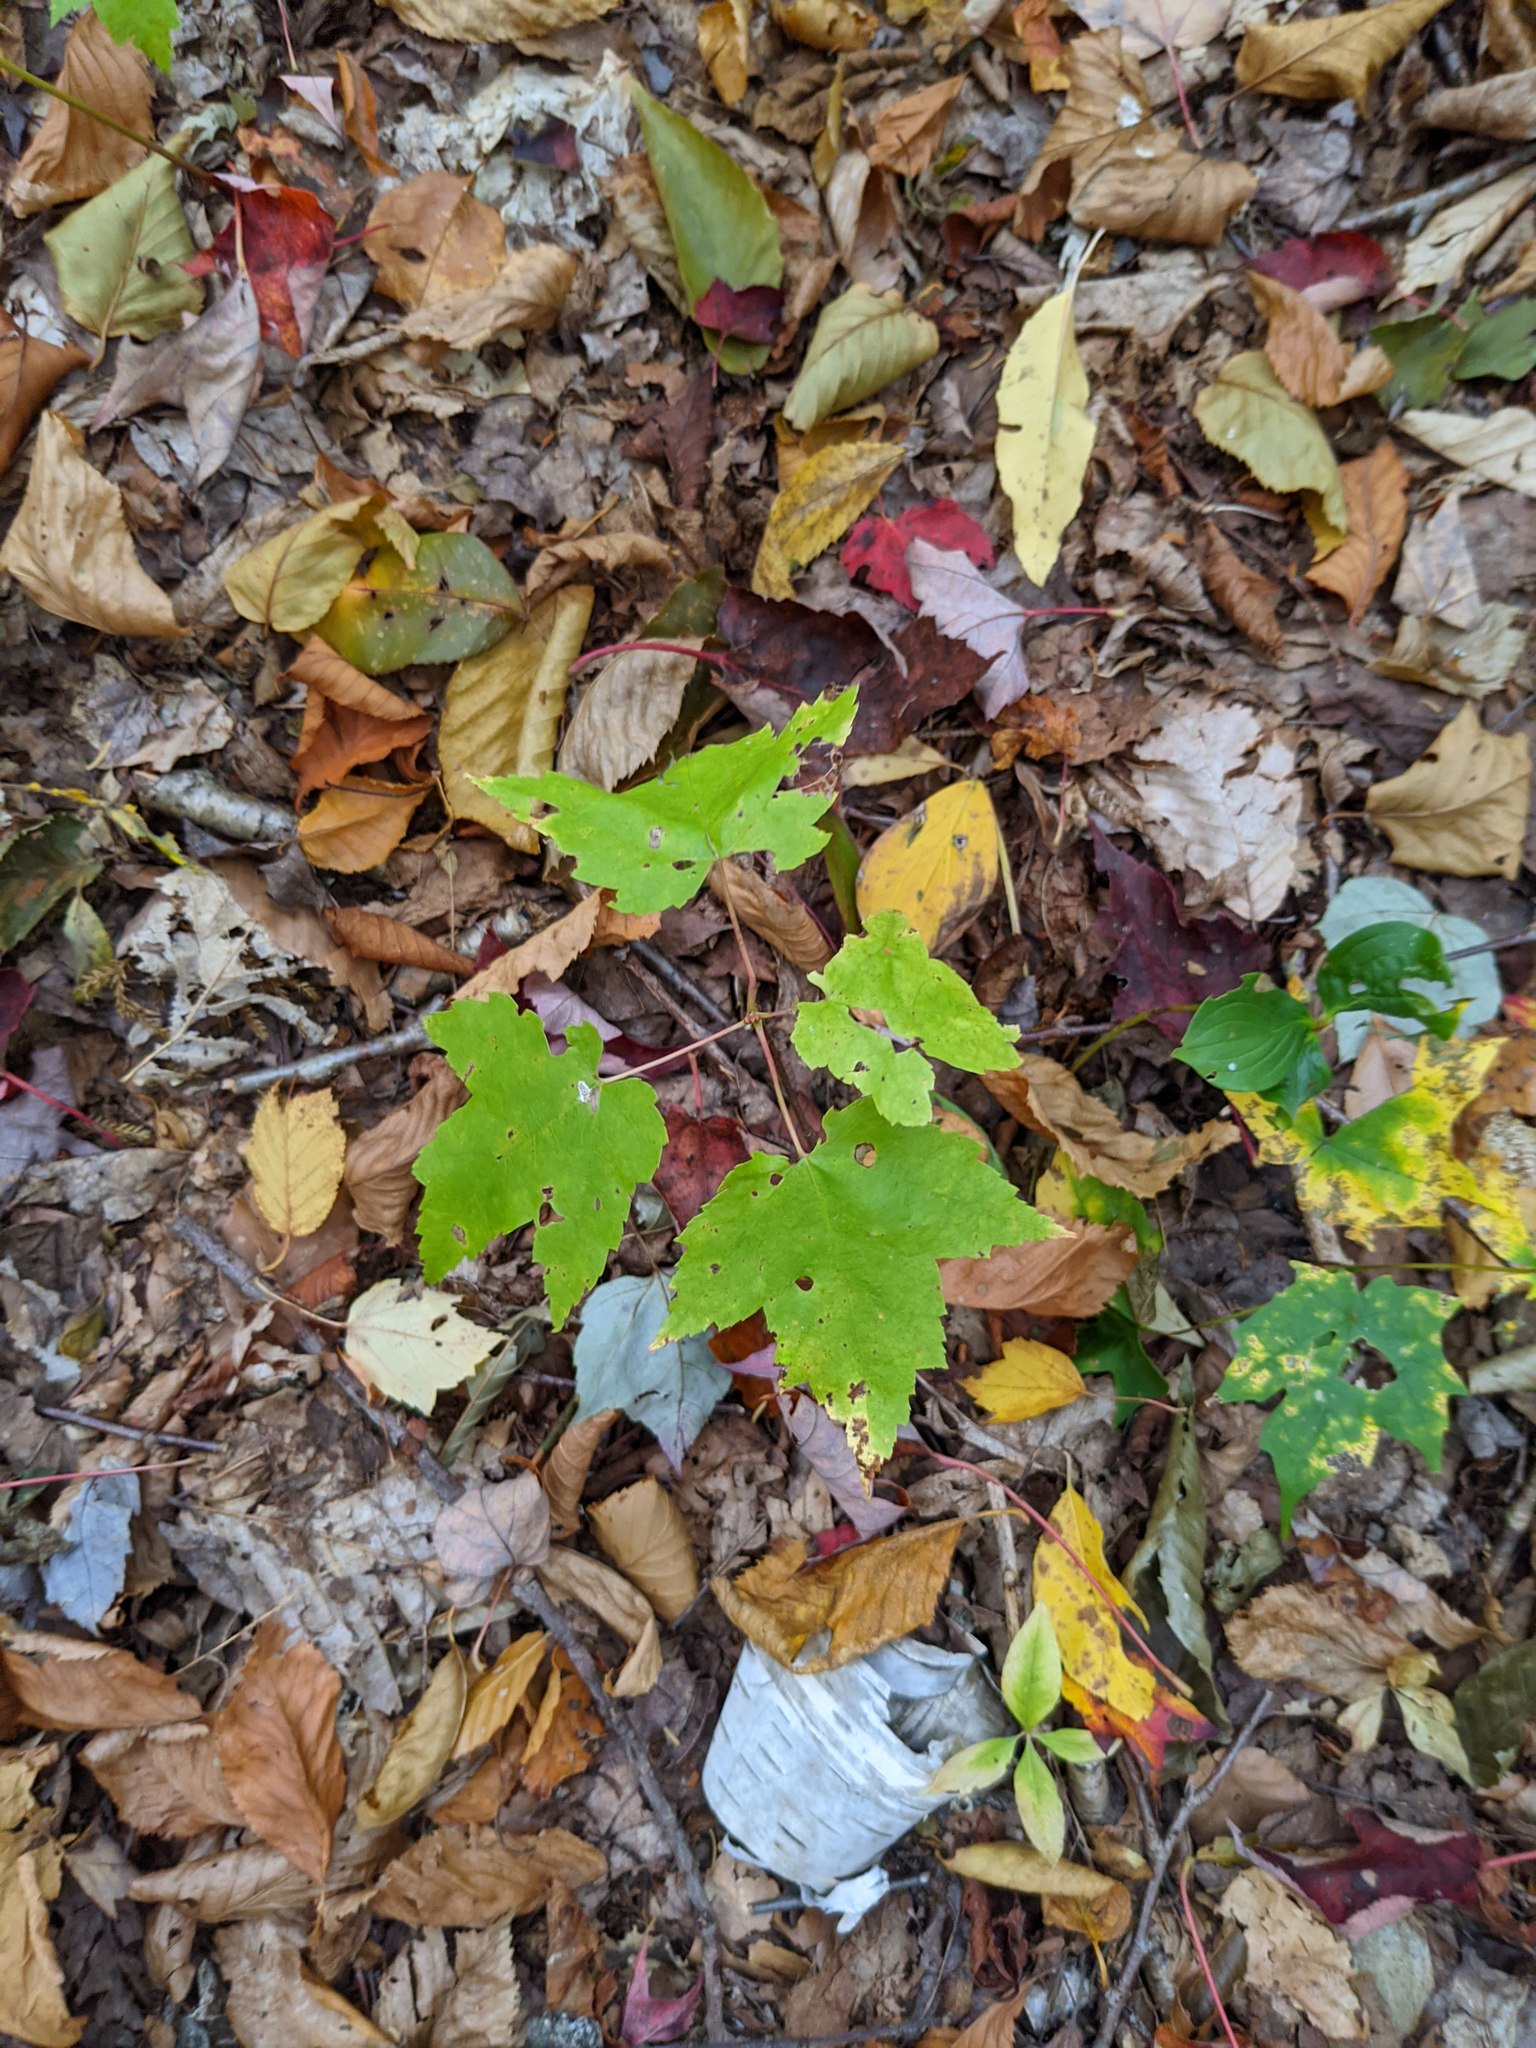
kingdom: Plantae
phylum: Tracheophyta
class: Magnoliopsida
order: Sapindales
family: Sapindaceae
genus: Acer
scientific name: Acer rubrum
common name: Red maple
